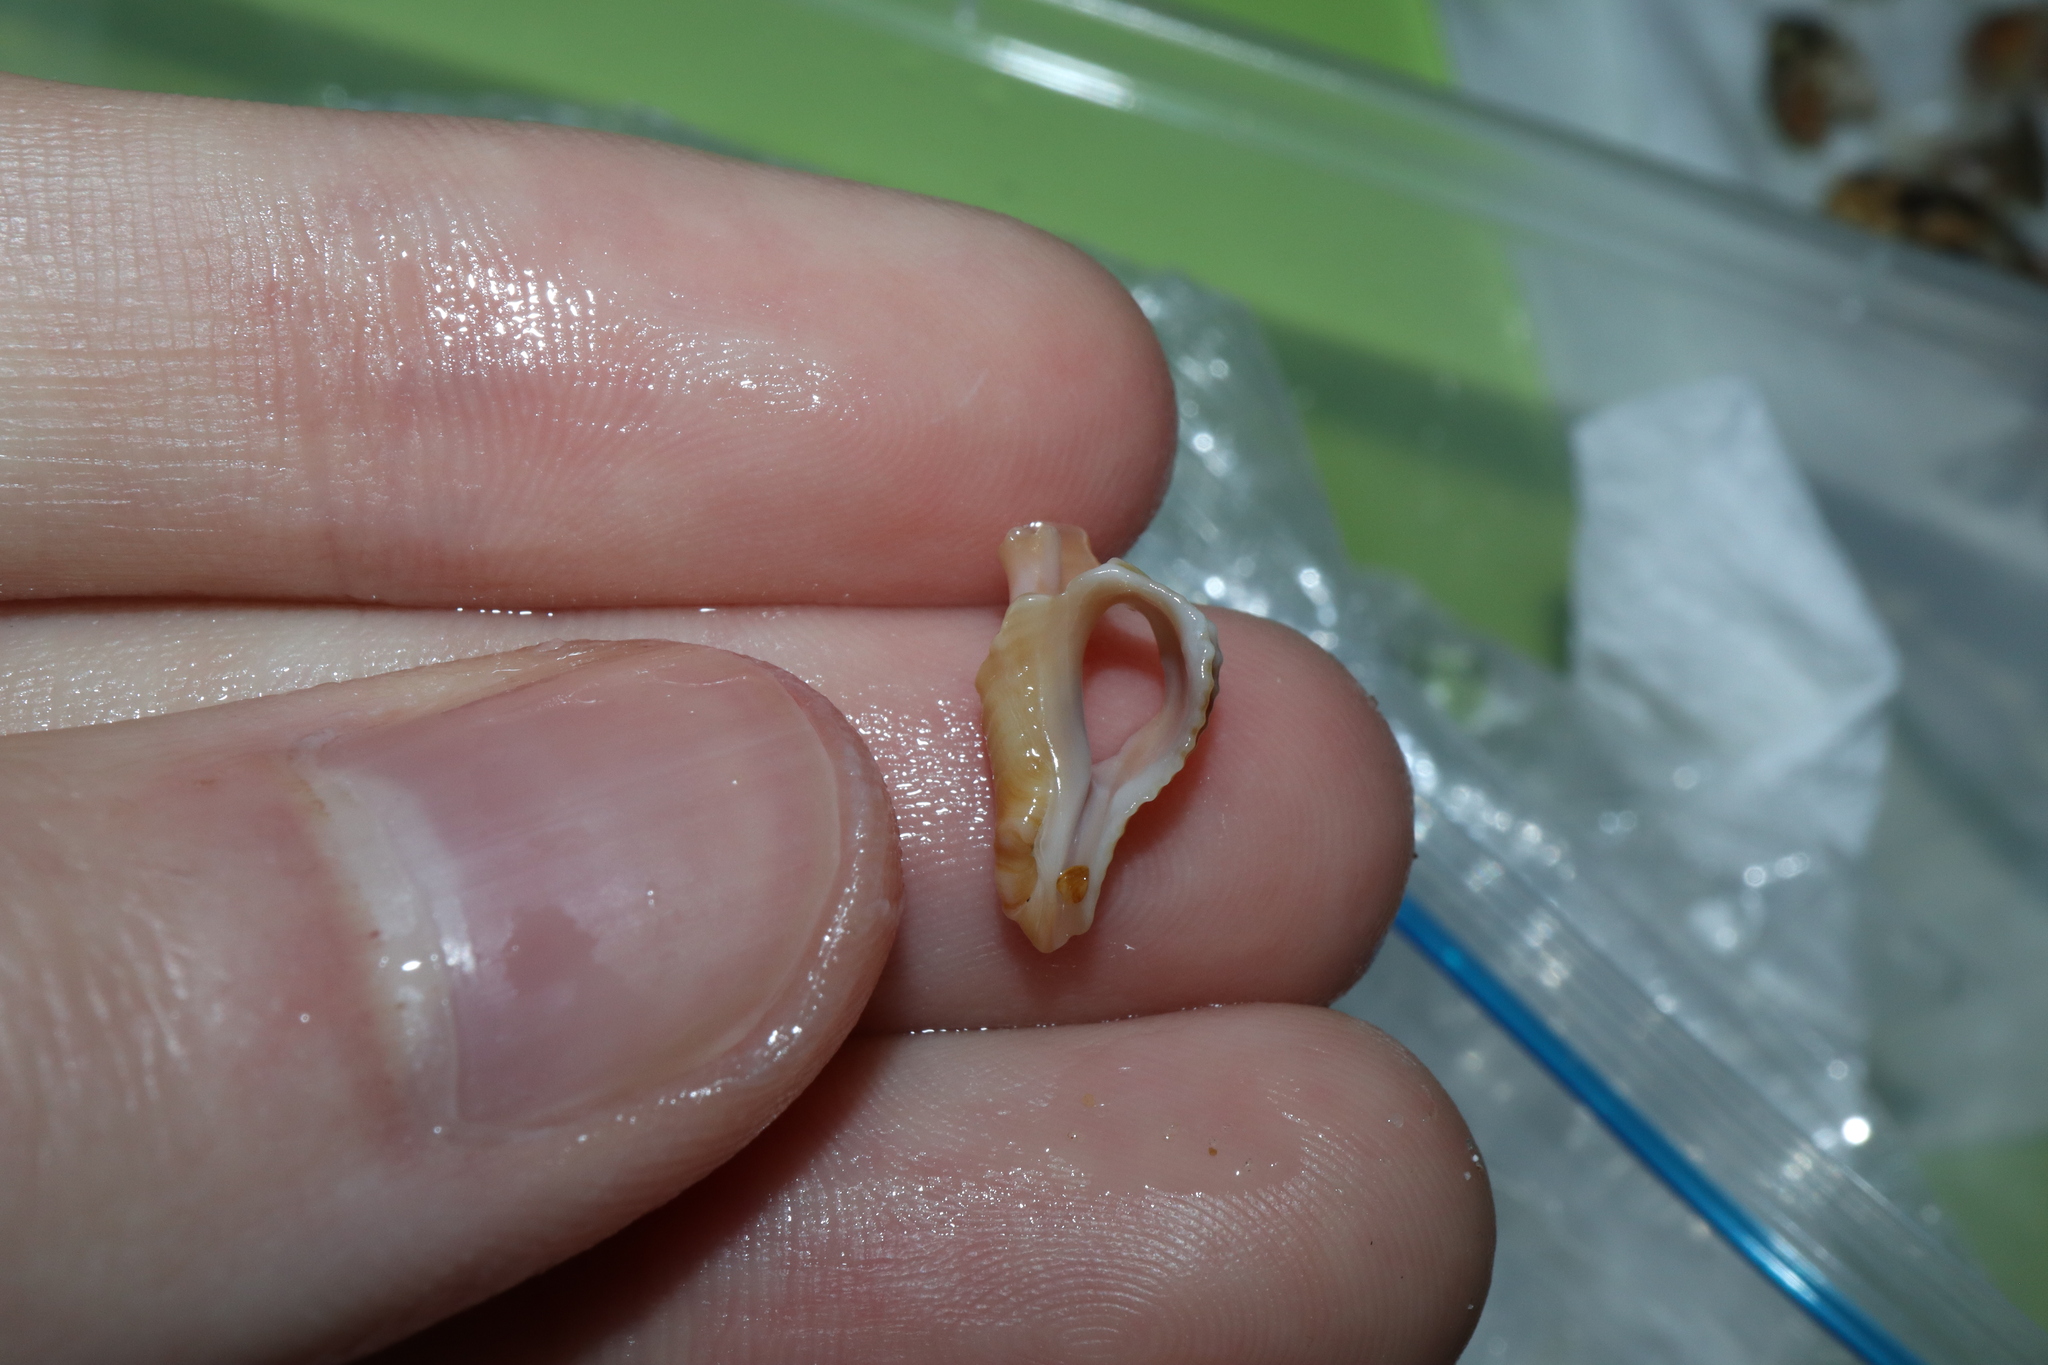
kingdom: Animalia
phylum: Mollusca
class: Gastropoda
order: Neogastropoda
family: Muricidae
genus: Bedeva
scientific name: Bedeva paivae
